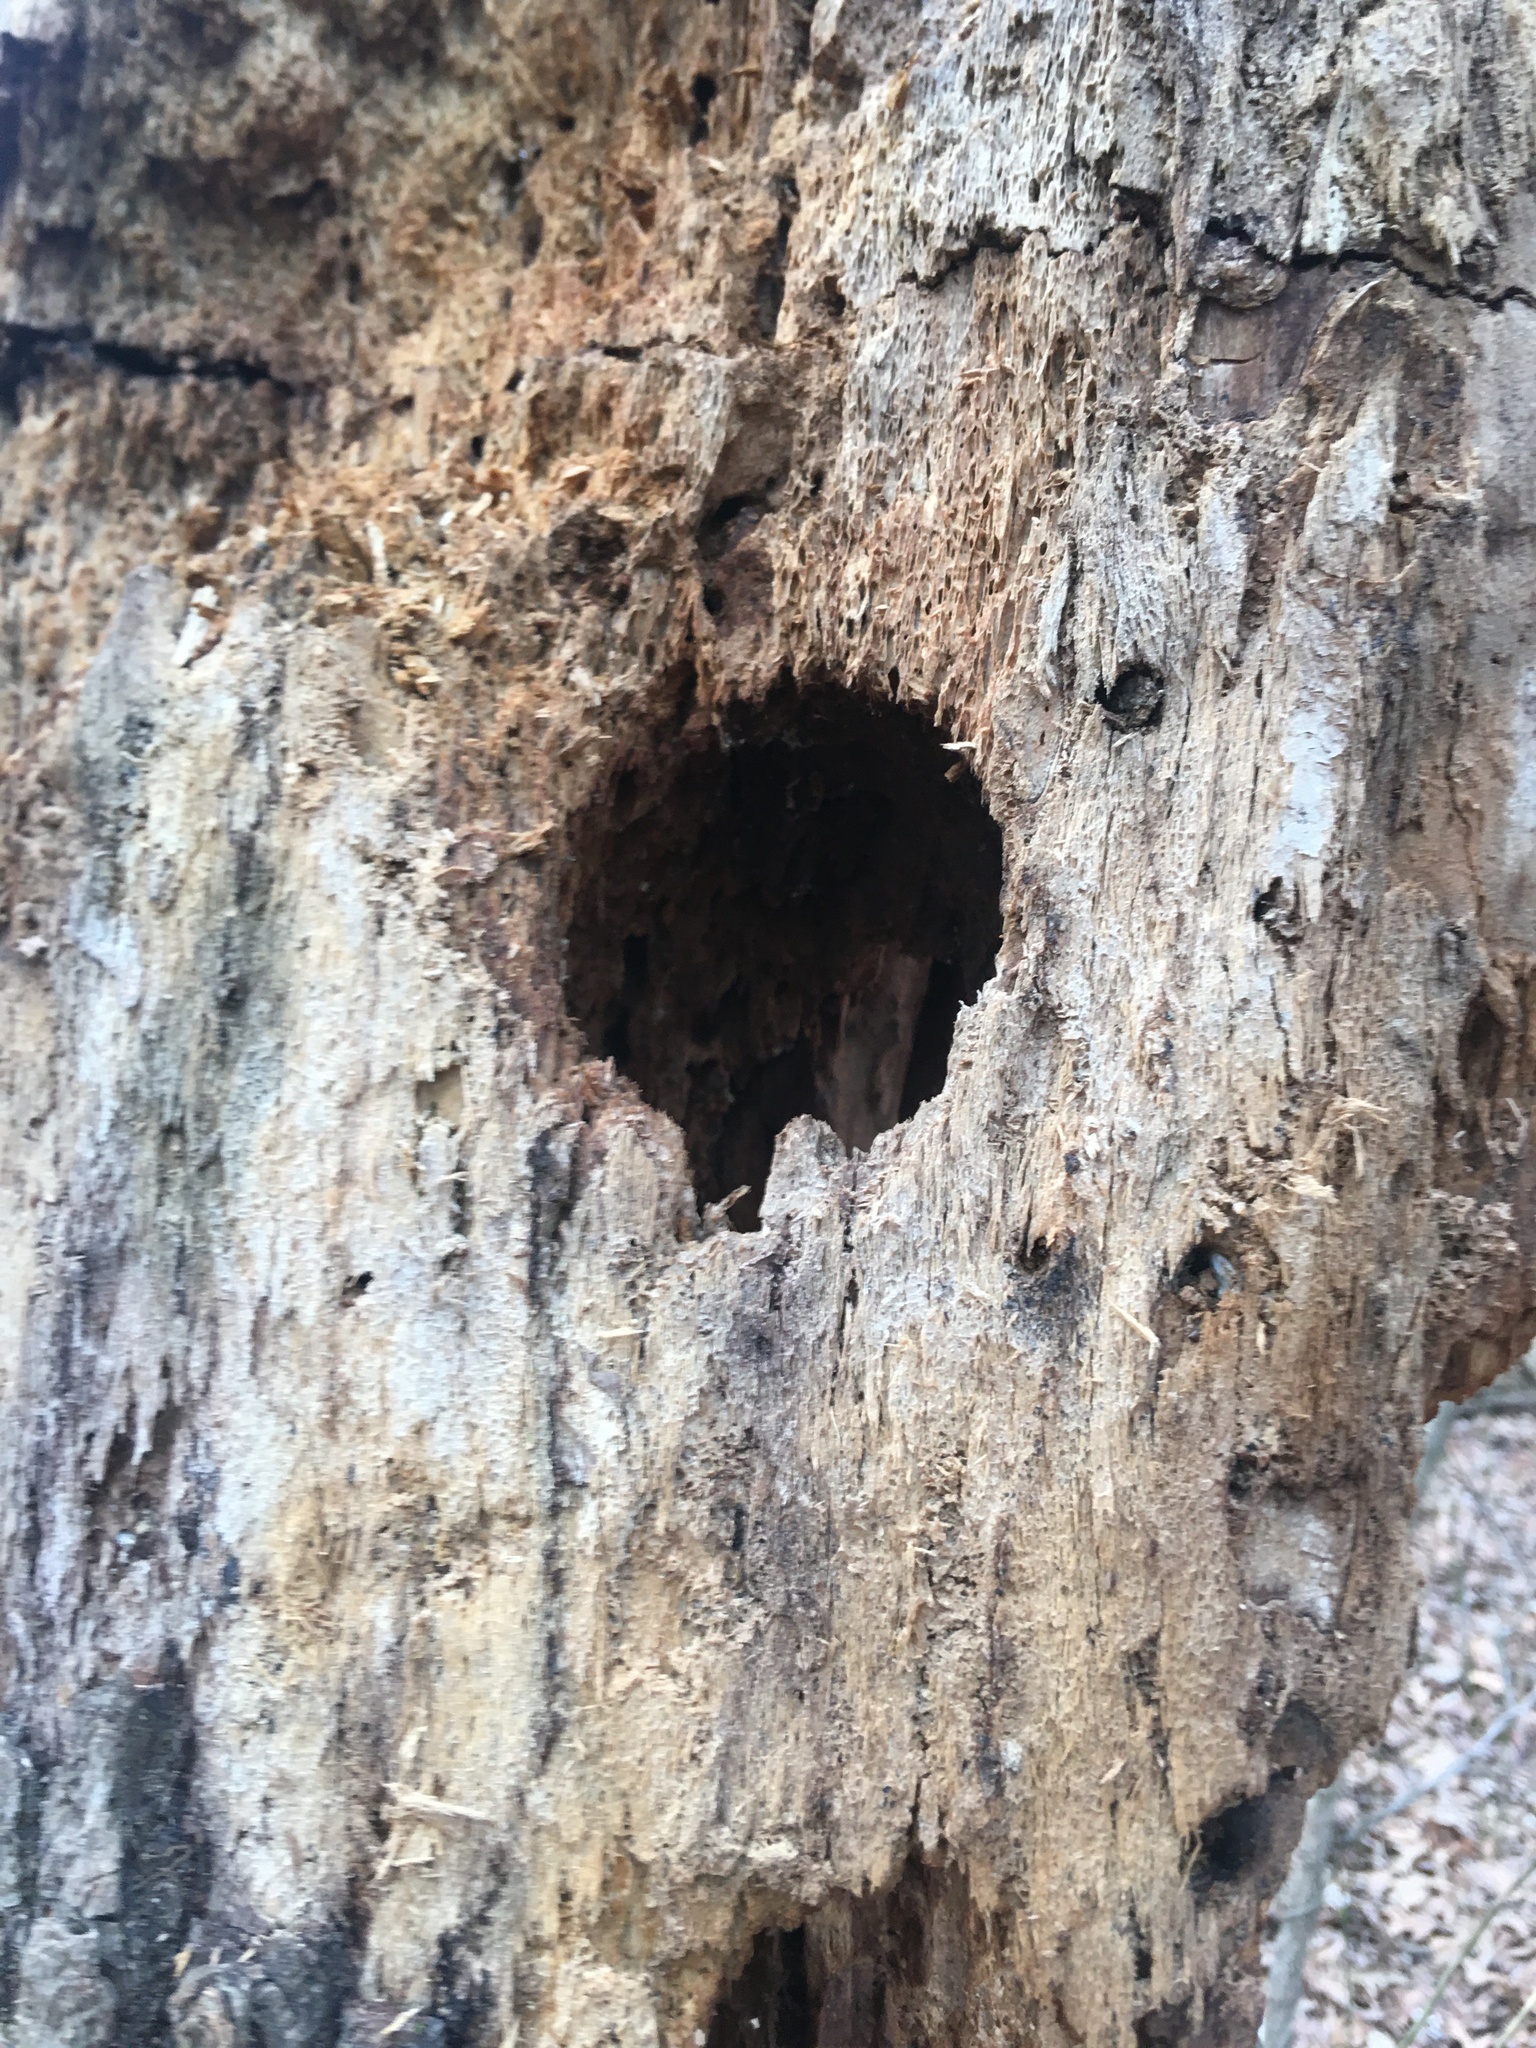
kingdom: Animalia
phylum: Chordata
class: Aves
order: Piciformes
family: Picidae
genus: Dryocopus
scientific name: Dryocopus pileatus
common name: Pileated woodpecker
